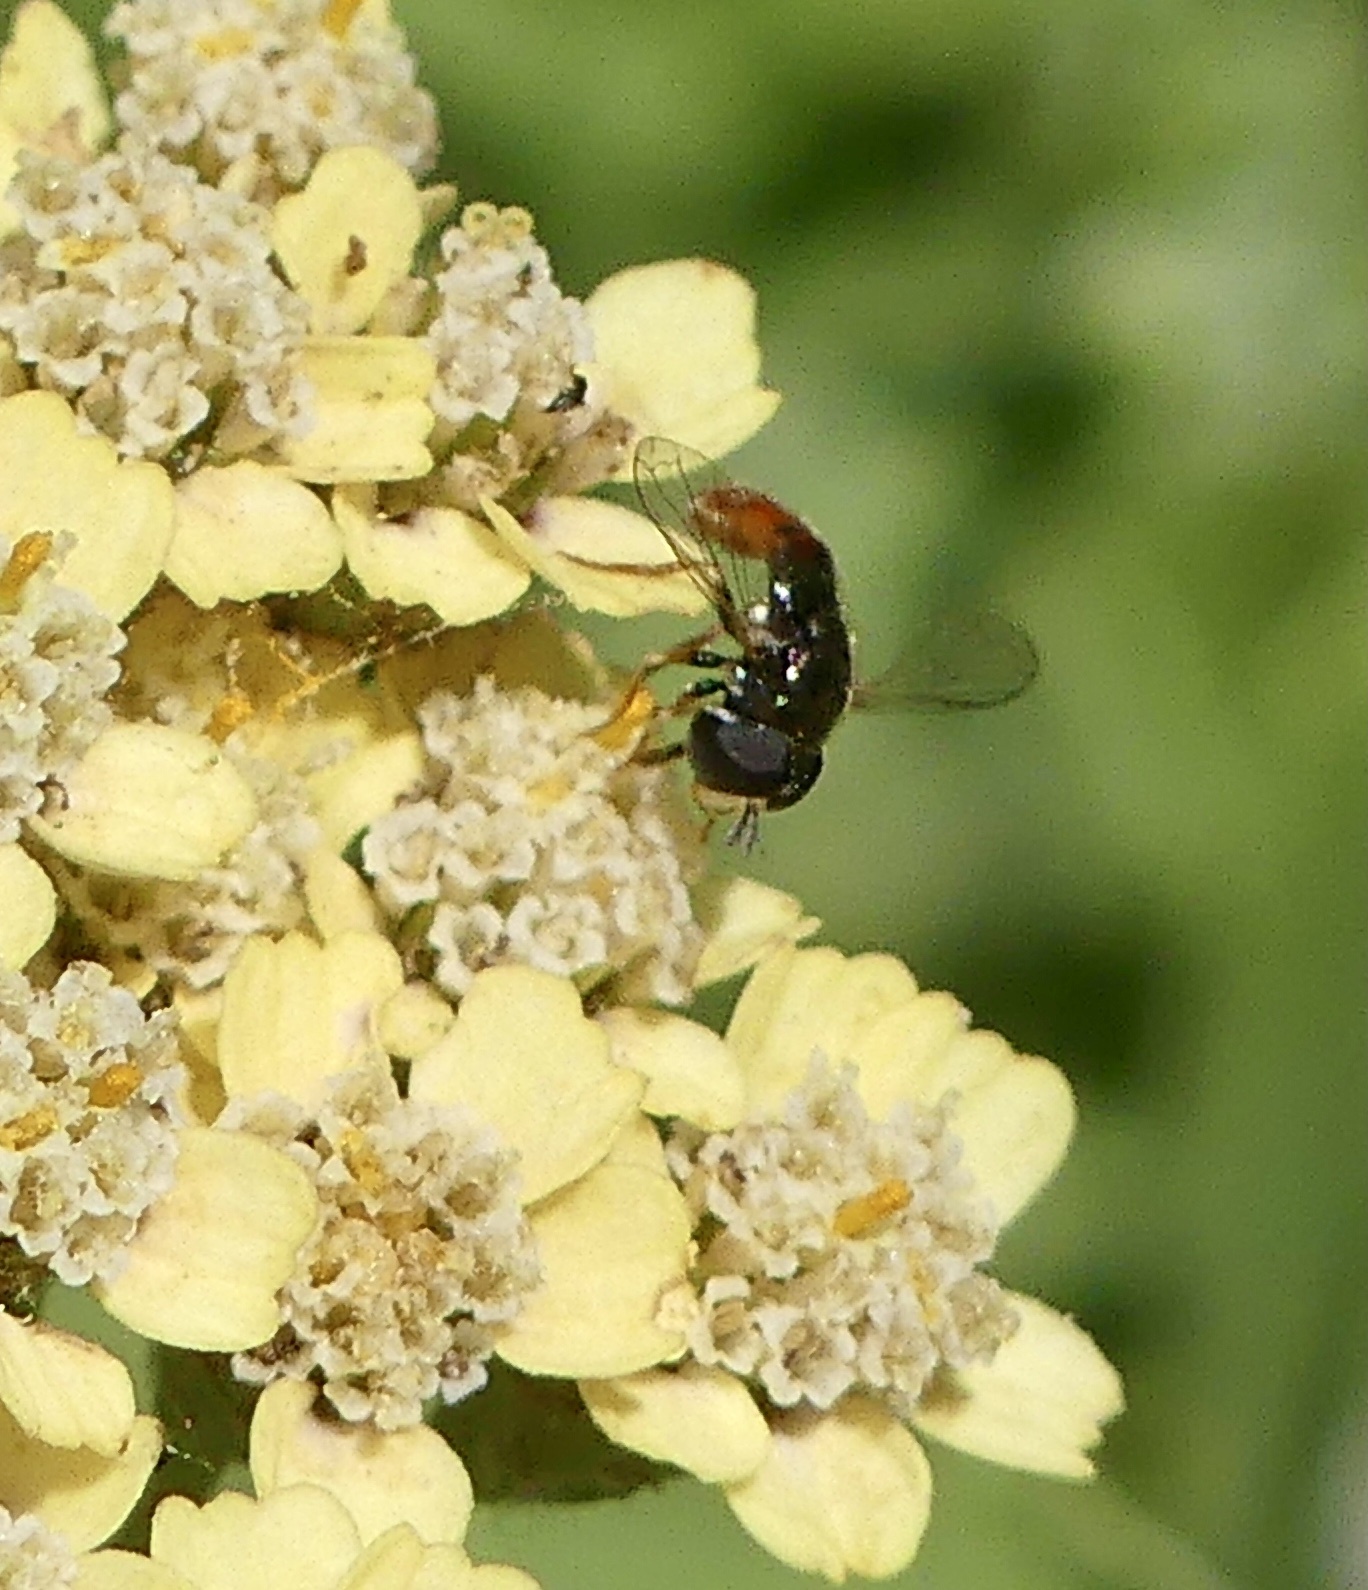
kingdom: Animalia
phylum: Arthropoda
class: Insecta
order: Diptera
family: Syrphidae
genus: Paragus
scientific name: Paragus haemorrhous
